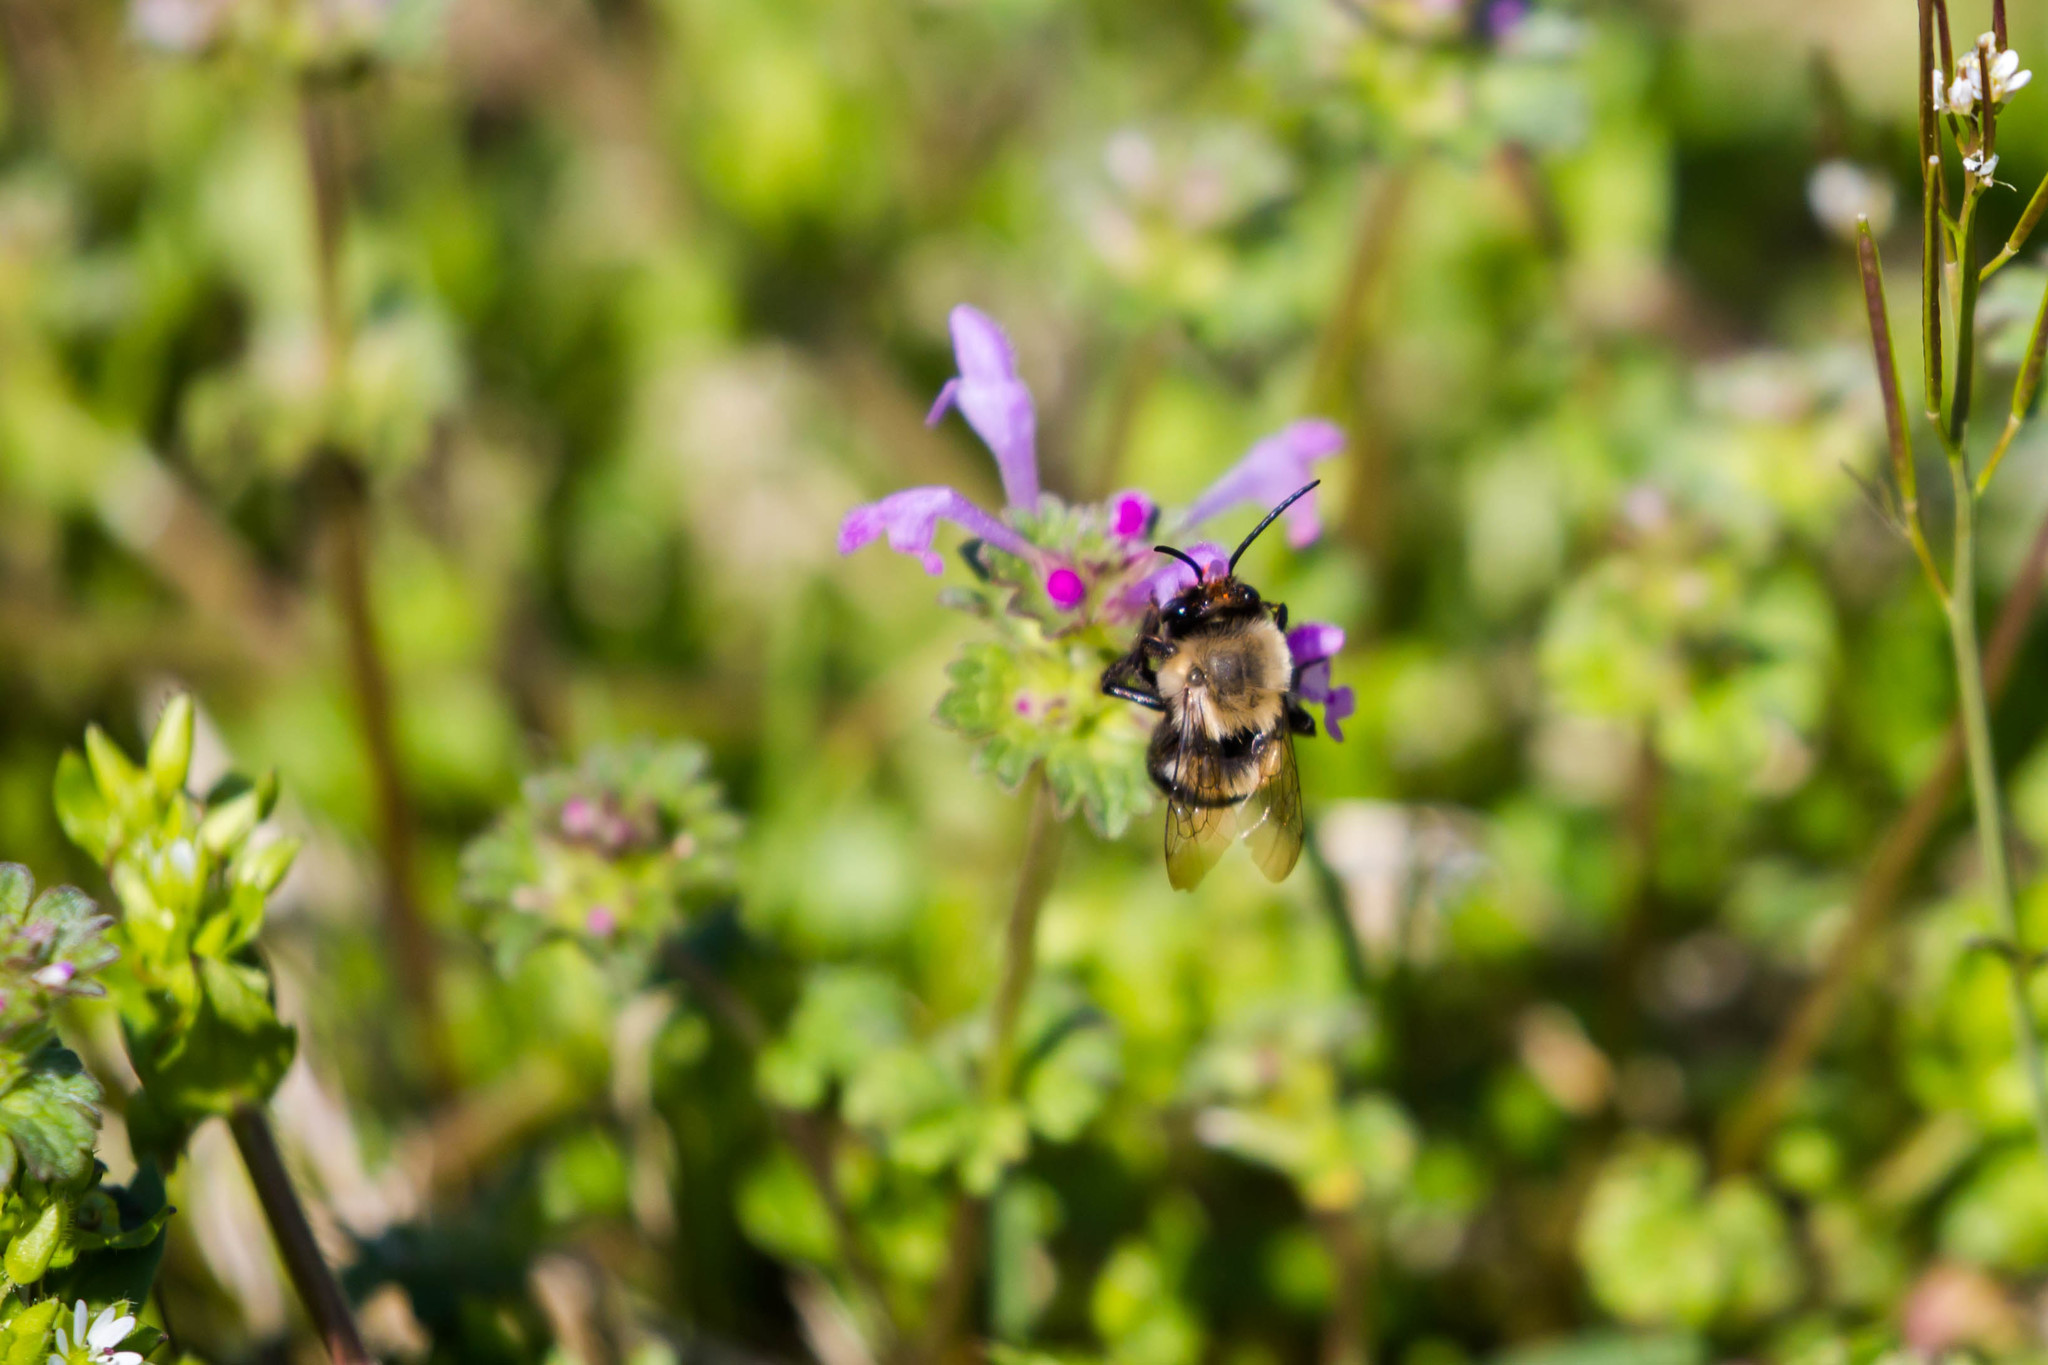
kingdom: Animalia
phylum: Arthropoda
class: Insecta
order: Hymenoptera
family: Apidae
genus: Habropoda
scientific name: Habropoda laboriosa
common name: Southeastern blueberry bee
